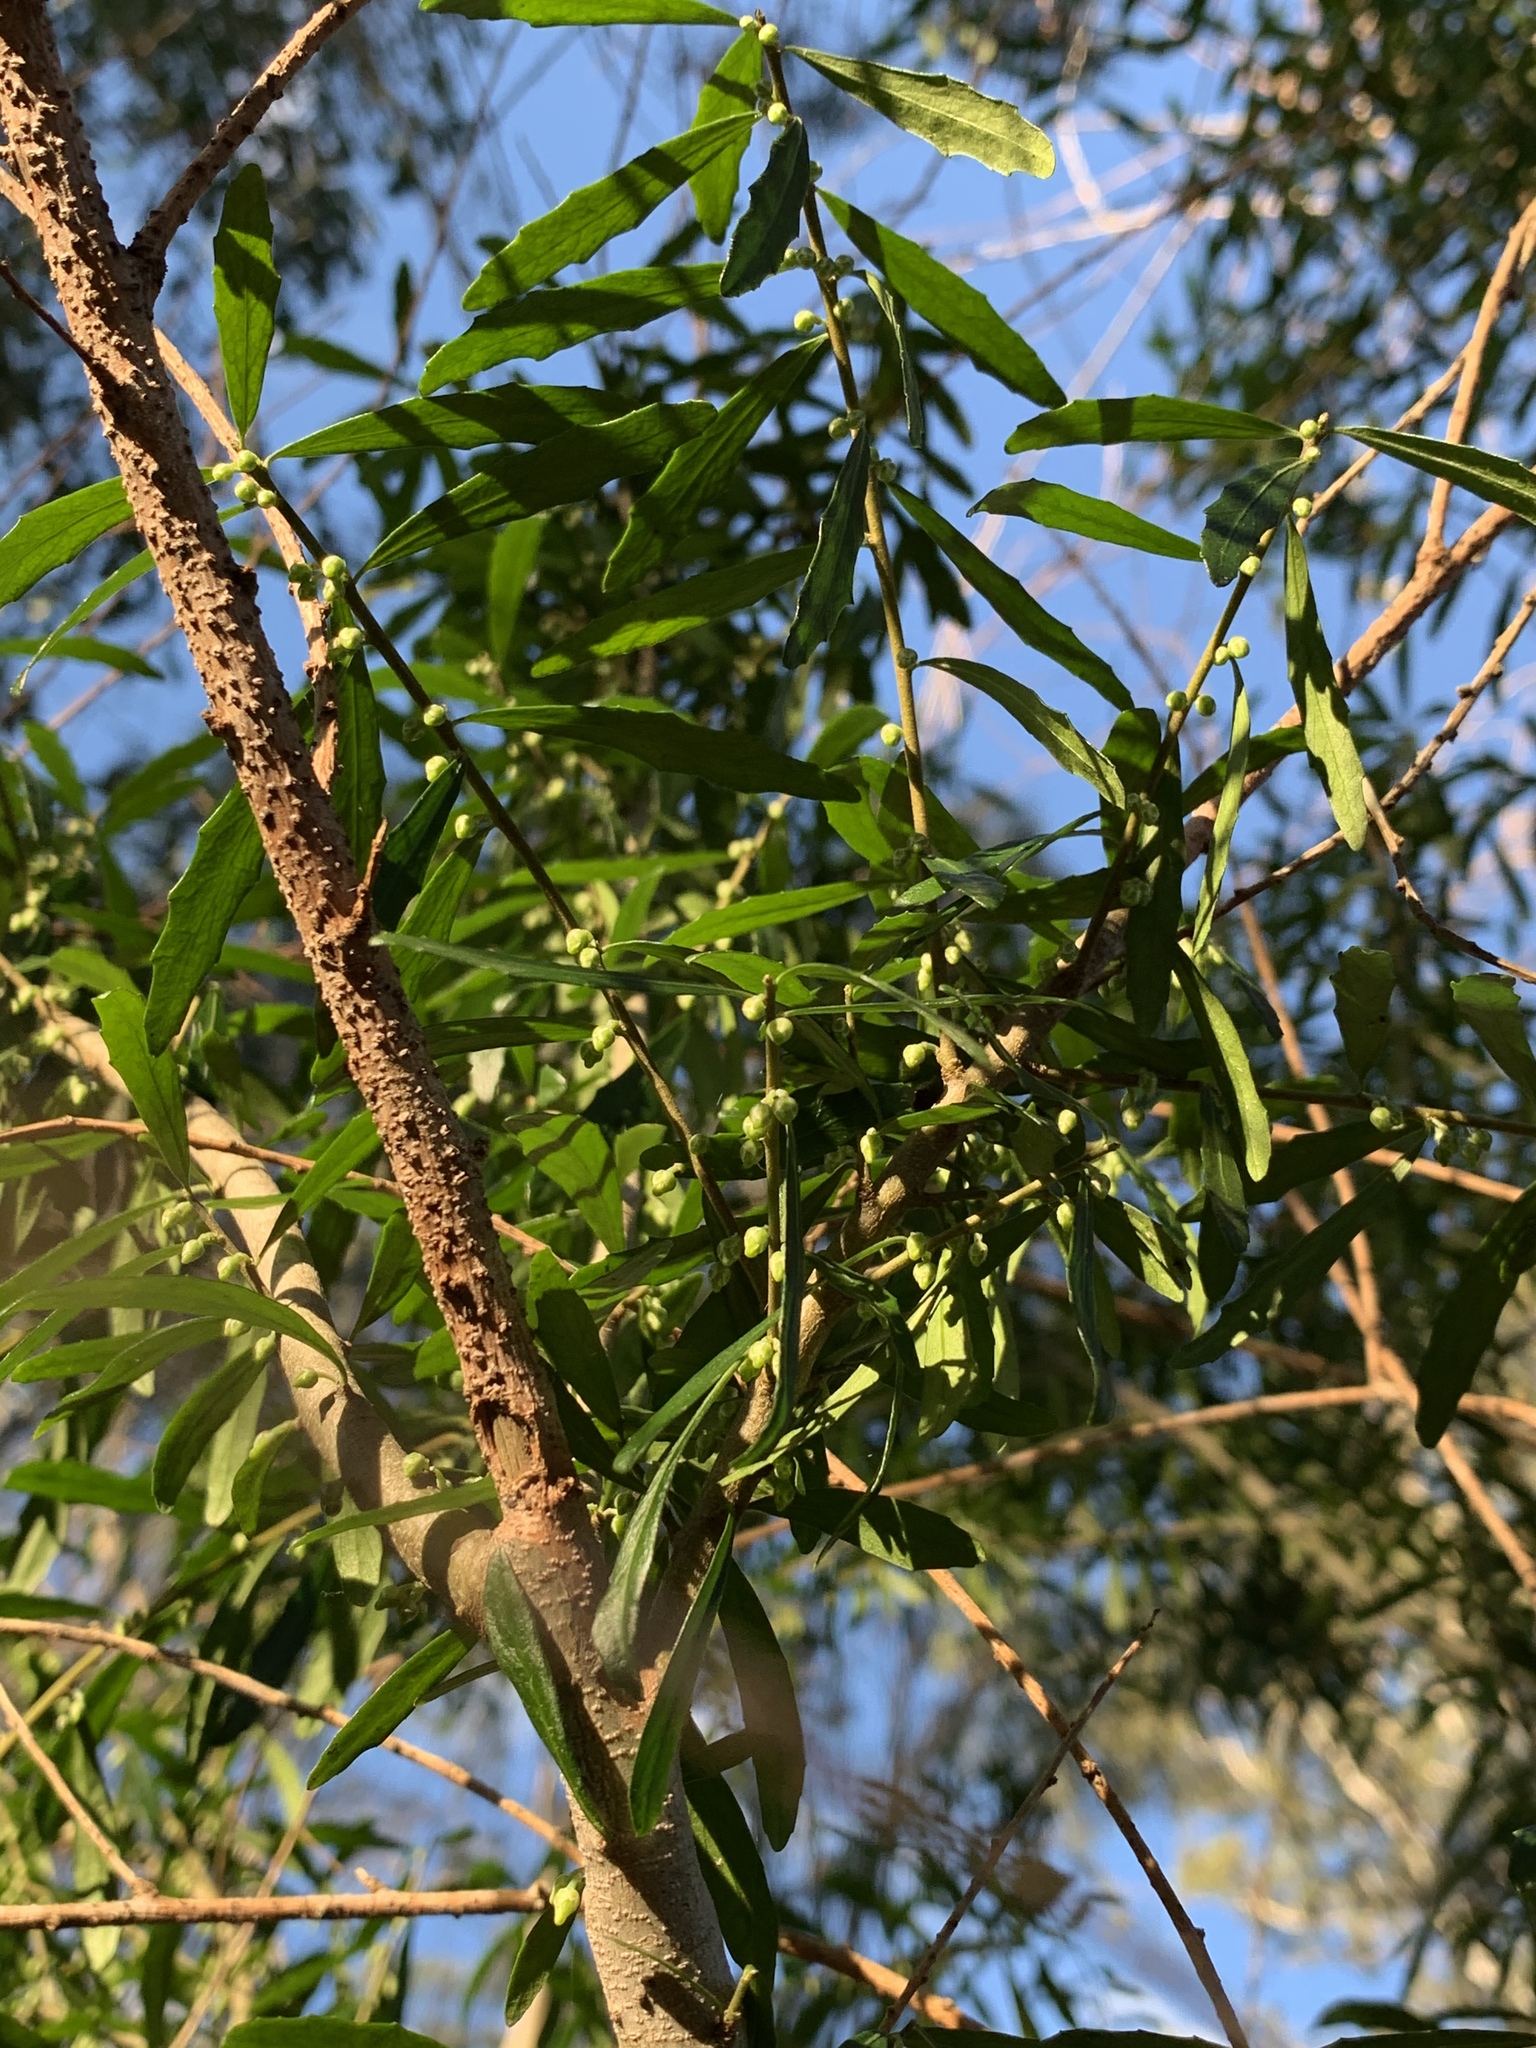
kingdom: Plantae
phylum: Tracheophyta
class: Magnoliopsida
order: Malpighiales
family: Violaceae
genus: Melicytus
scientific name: Melicytus dentatus
